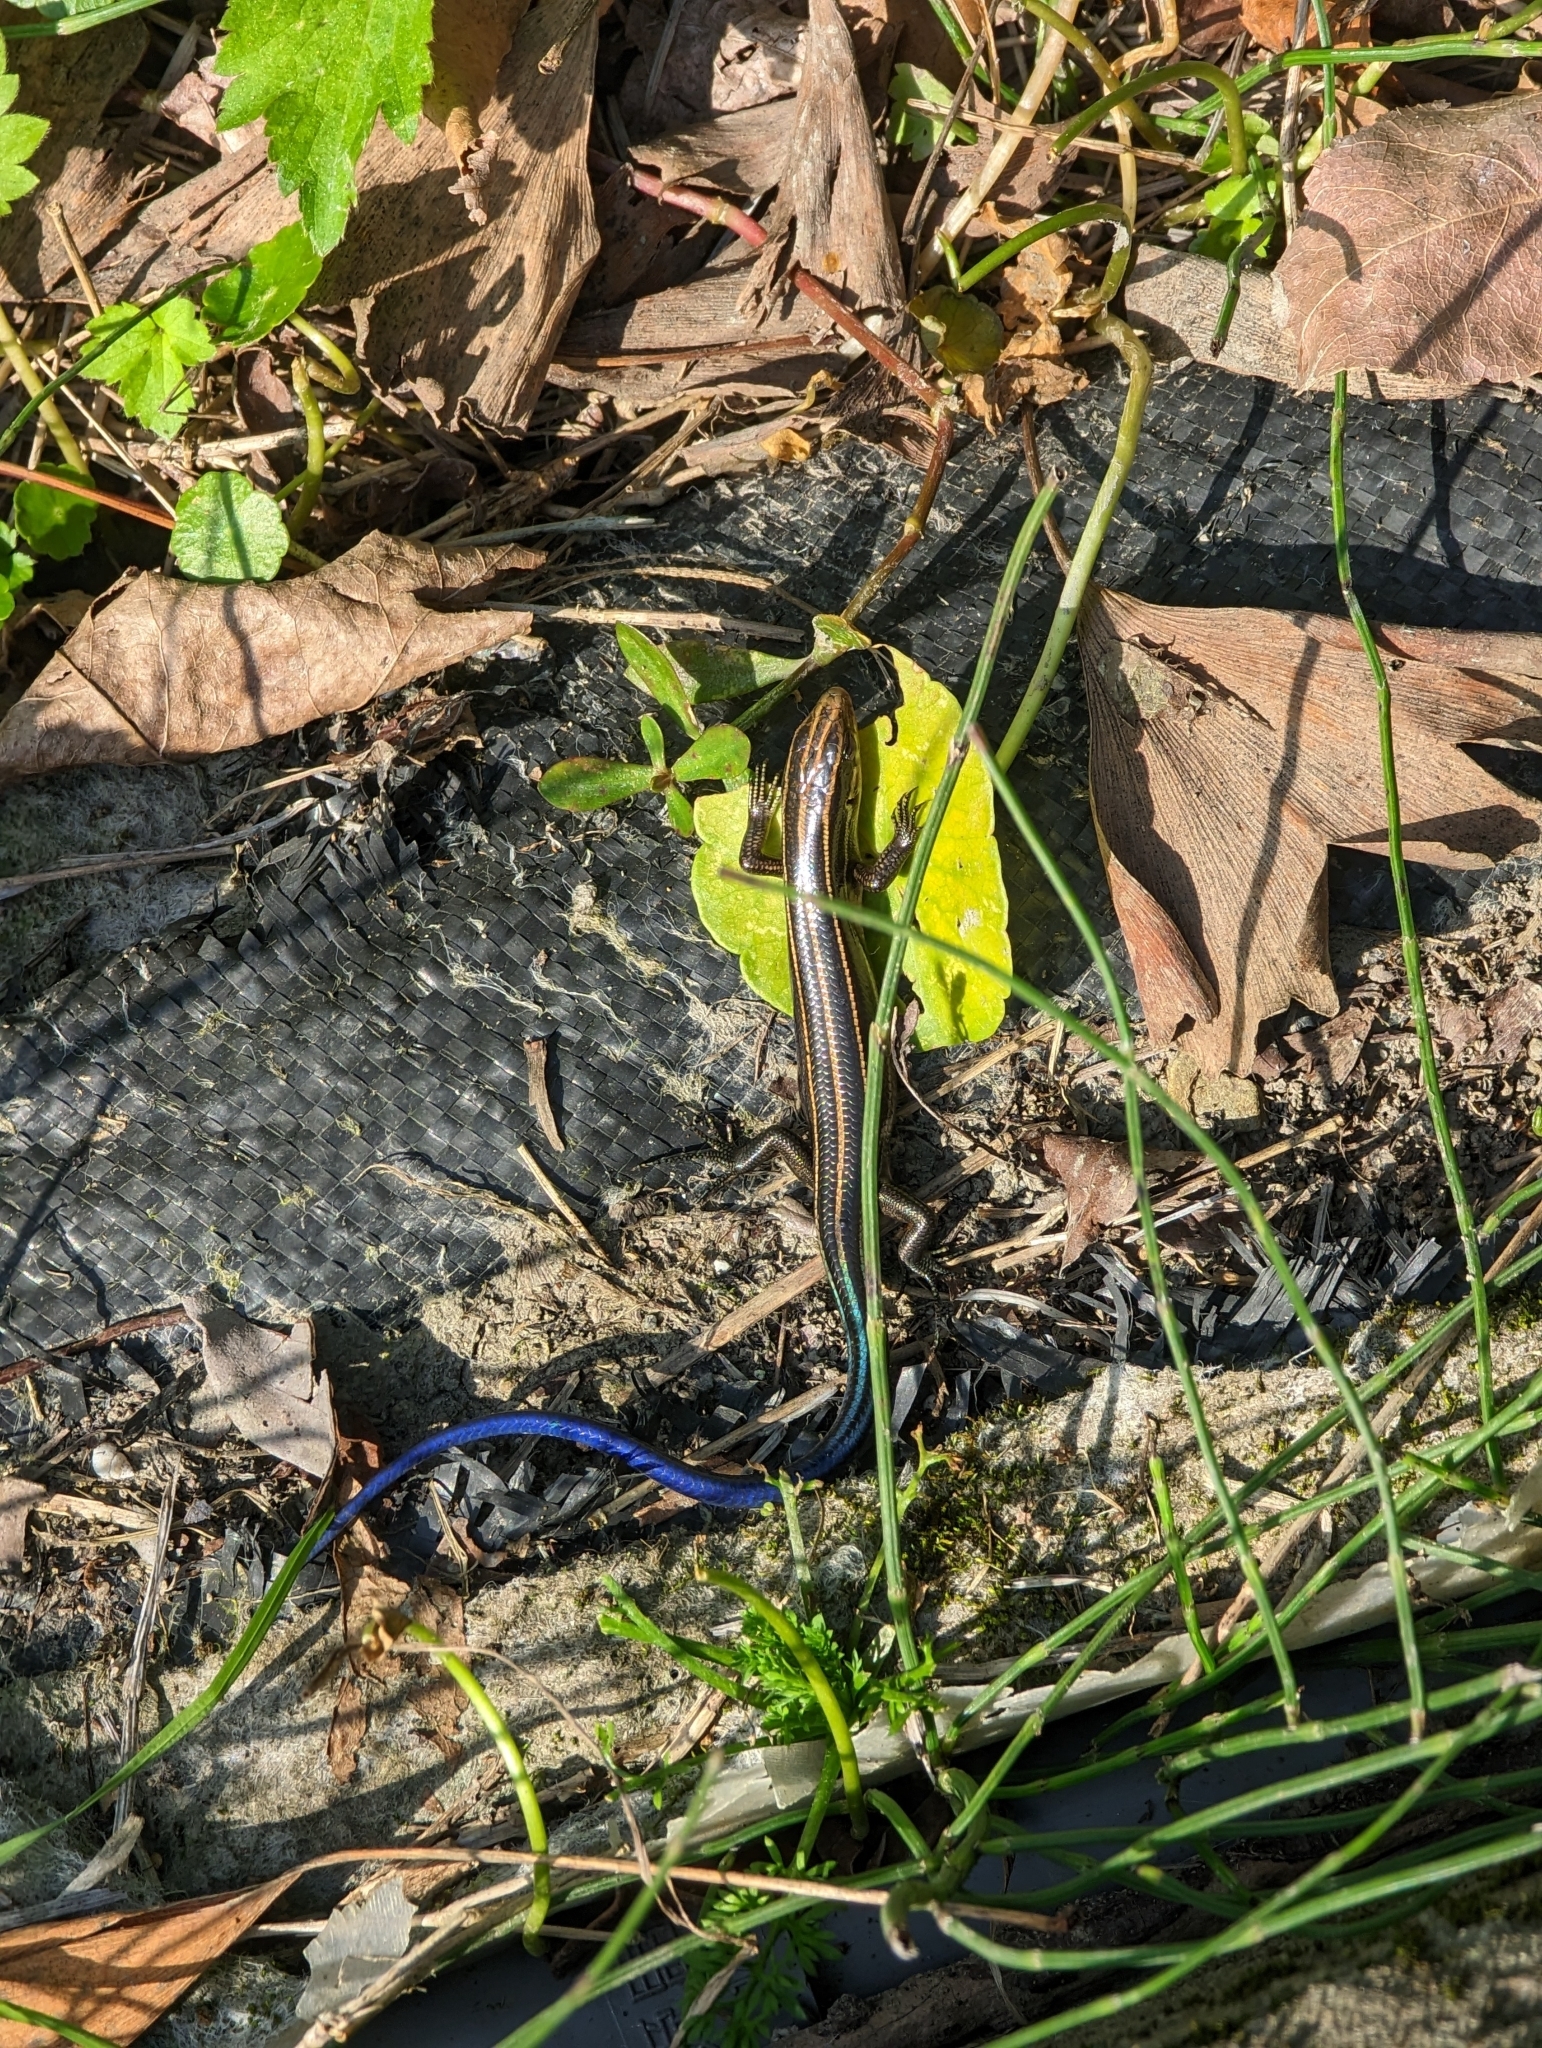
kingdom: Animalia
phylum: Chordata
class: Squamata
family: Scincidae
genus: Plestiodon
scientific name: Plestiodon elegans
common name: Shanghai elegant skink
